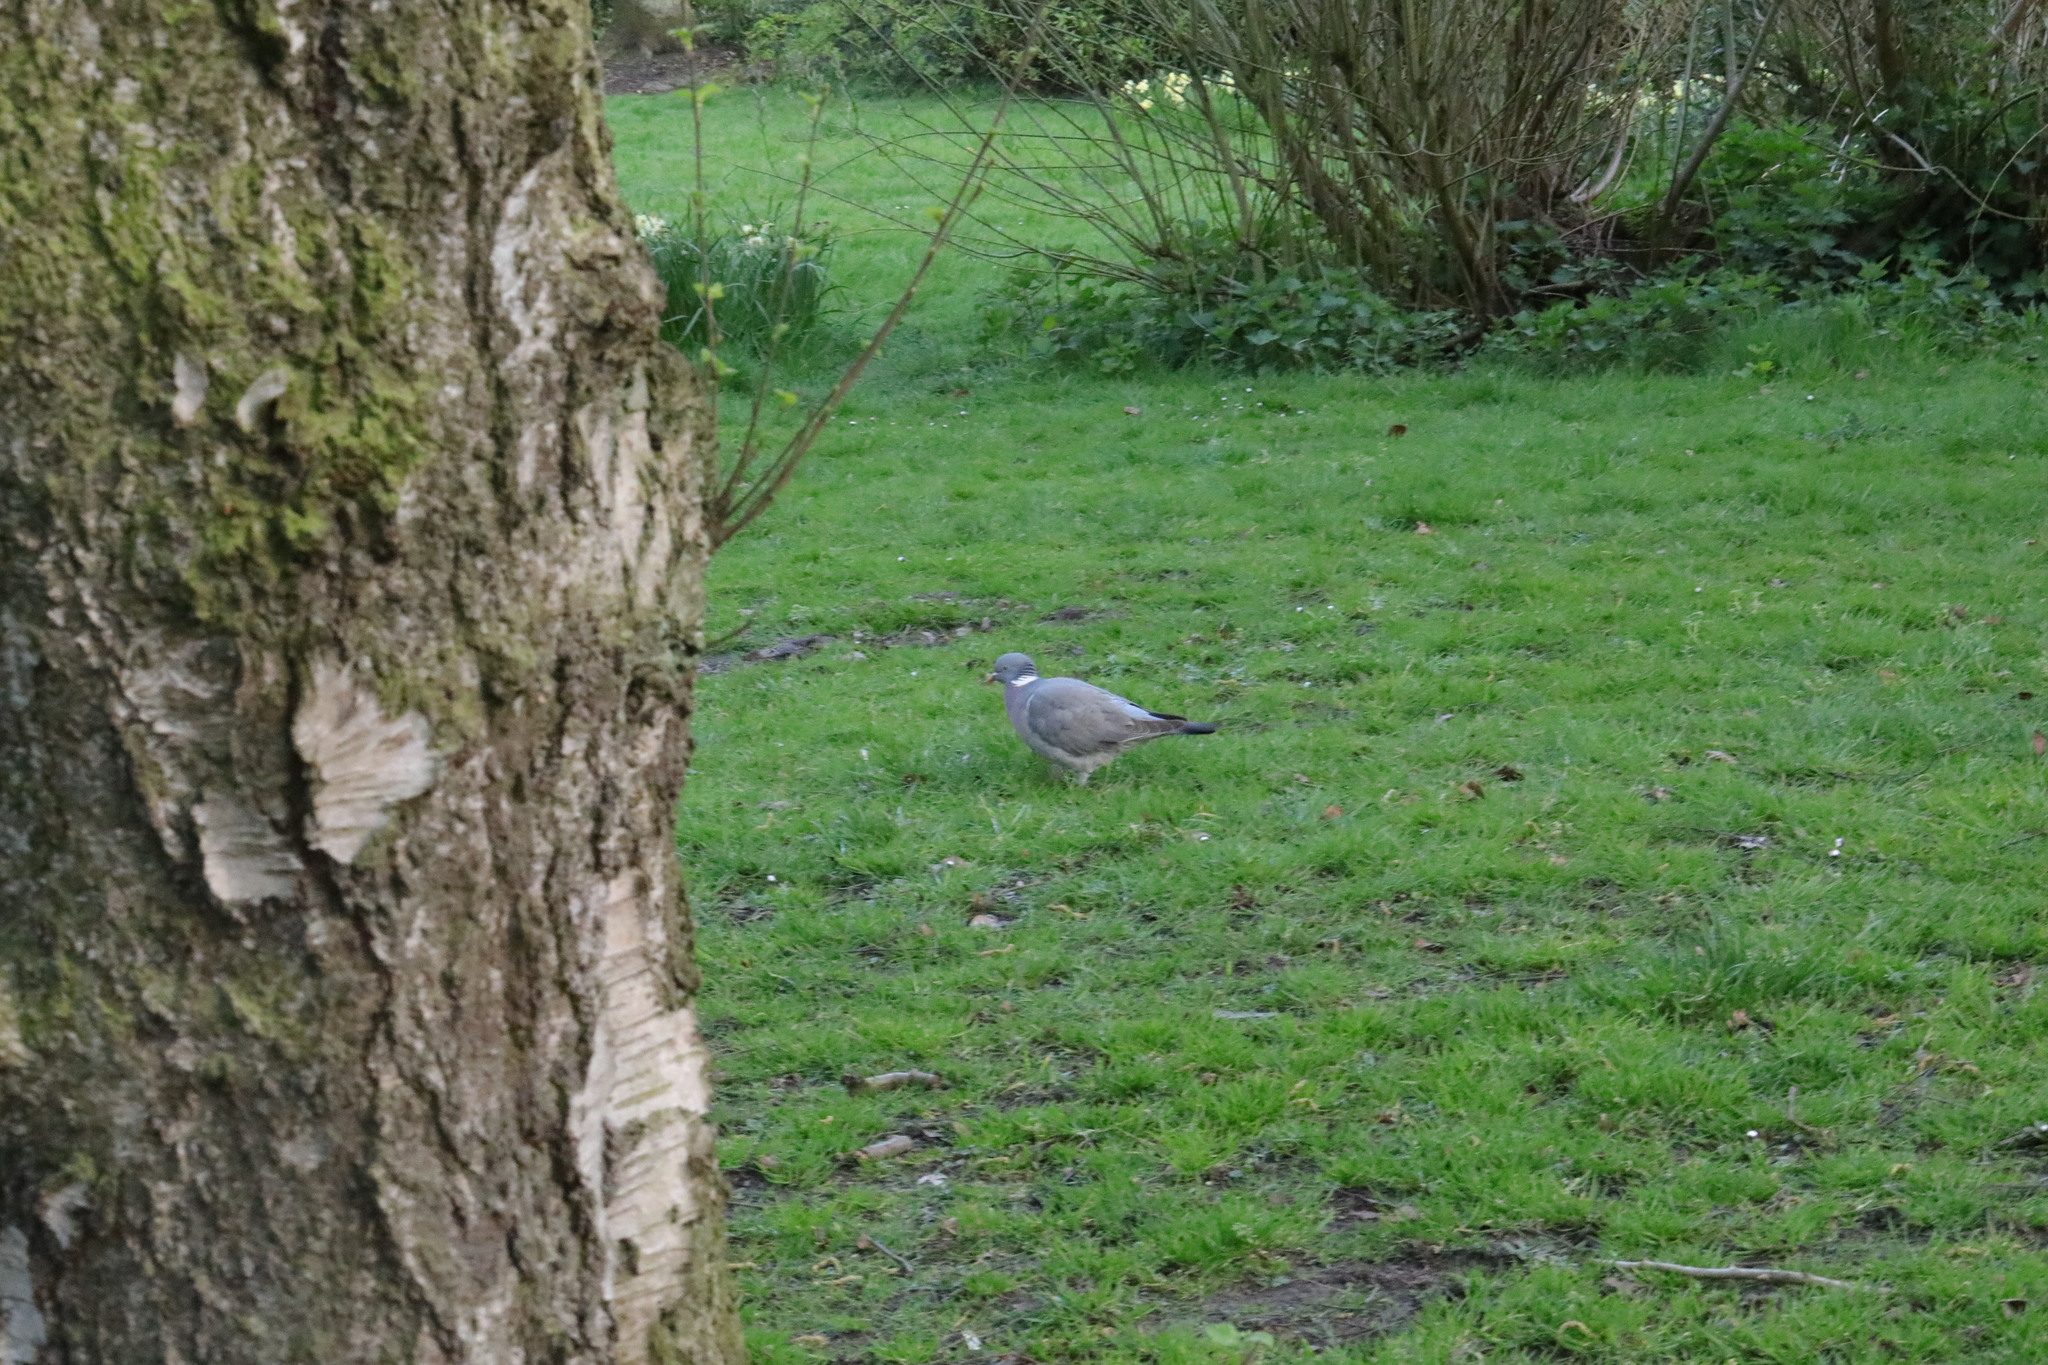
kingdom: Animalia
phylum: Chordata
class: Aves
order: Columbiformes
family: Columbidae
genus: Columba
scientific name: Columba palumbus
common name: Common wood pigeon
